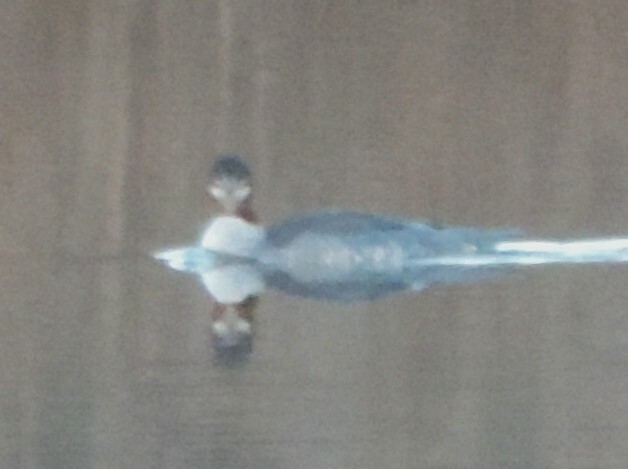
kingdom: Animalia
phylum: Chordata
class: Aves
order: Anseriformes
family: Anatidae
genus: Mergus
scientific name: Mergus merganser
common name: Common merganser
